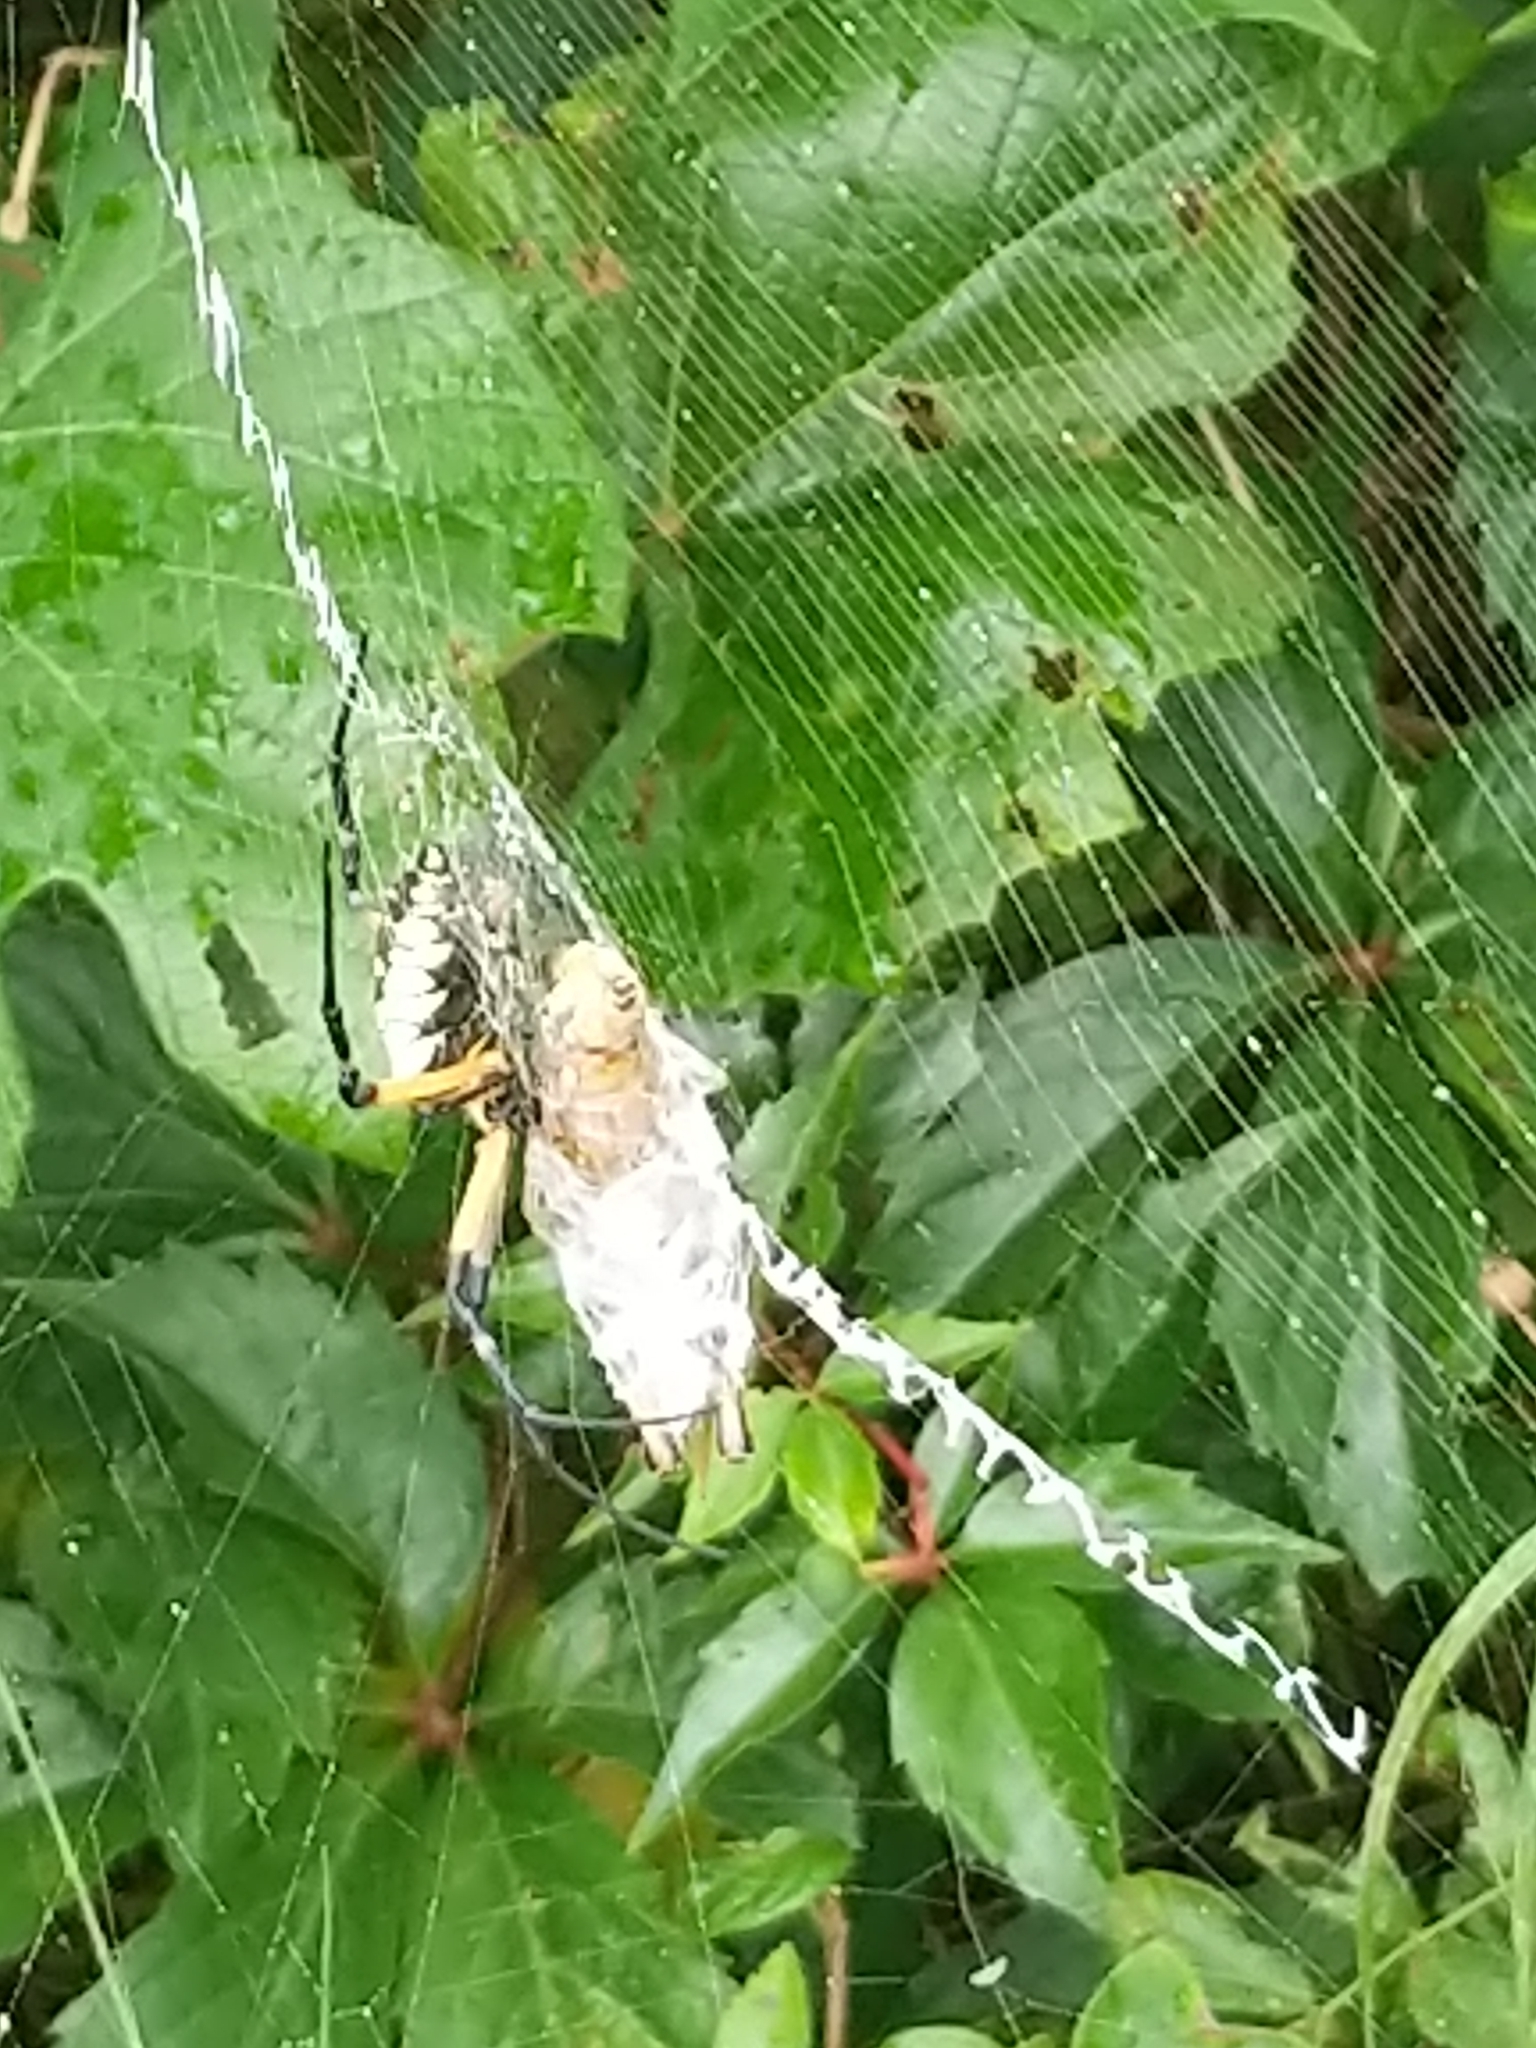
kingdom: Animalia
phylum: Arthropoda
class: Arachnida
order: Araneae
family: Araneidae
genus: Argiope
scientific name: Argiope aurantia
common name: Orb weavers
